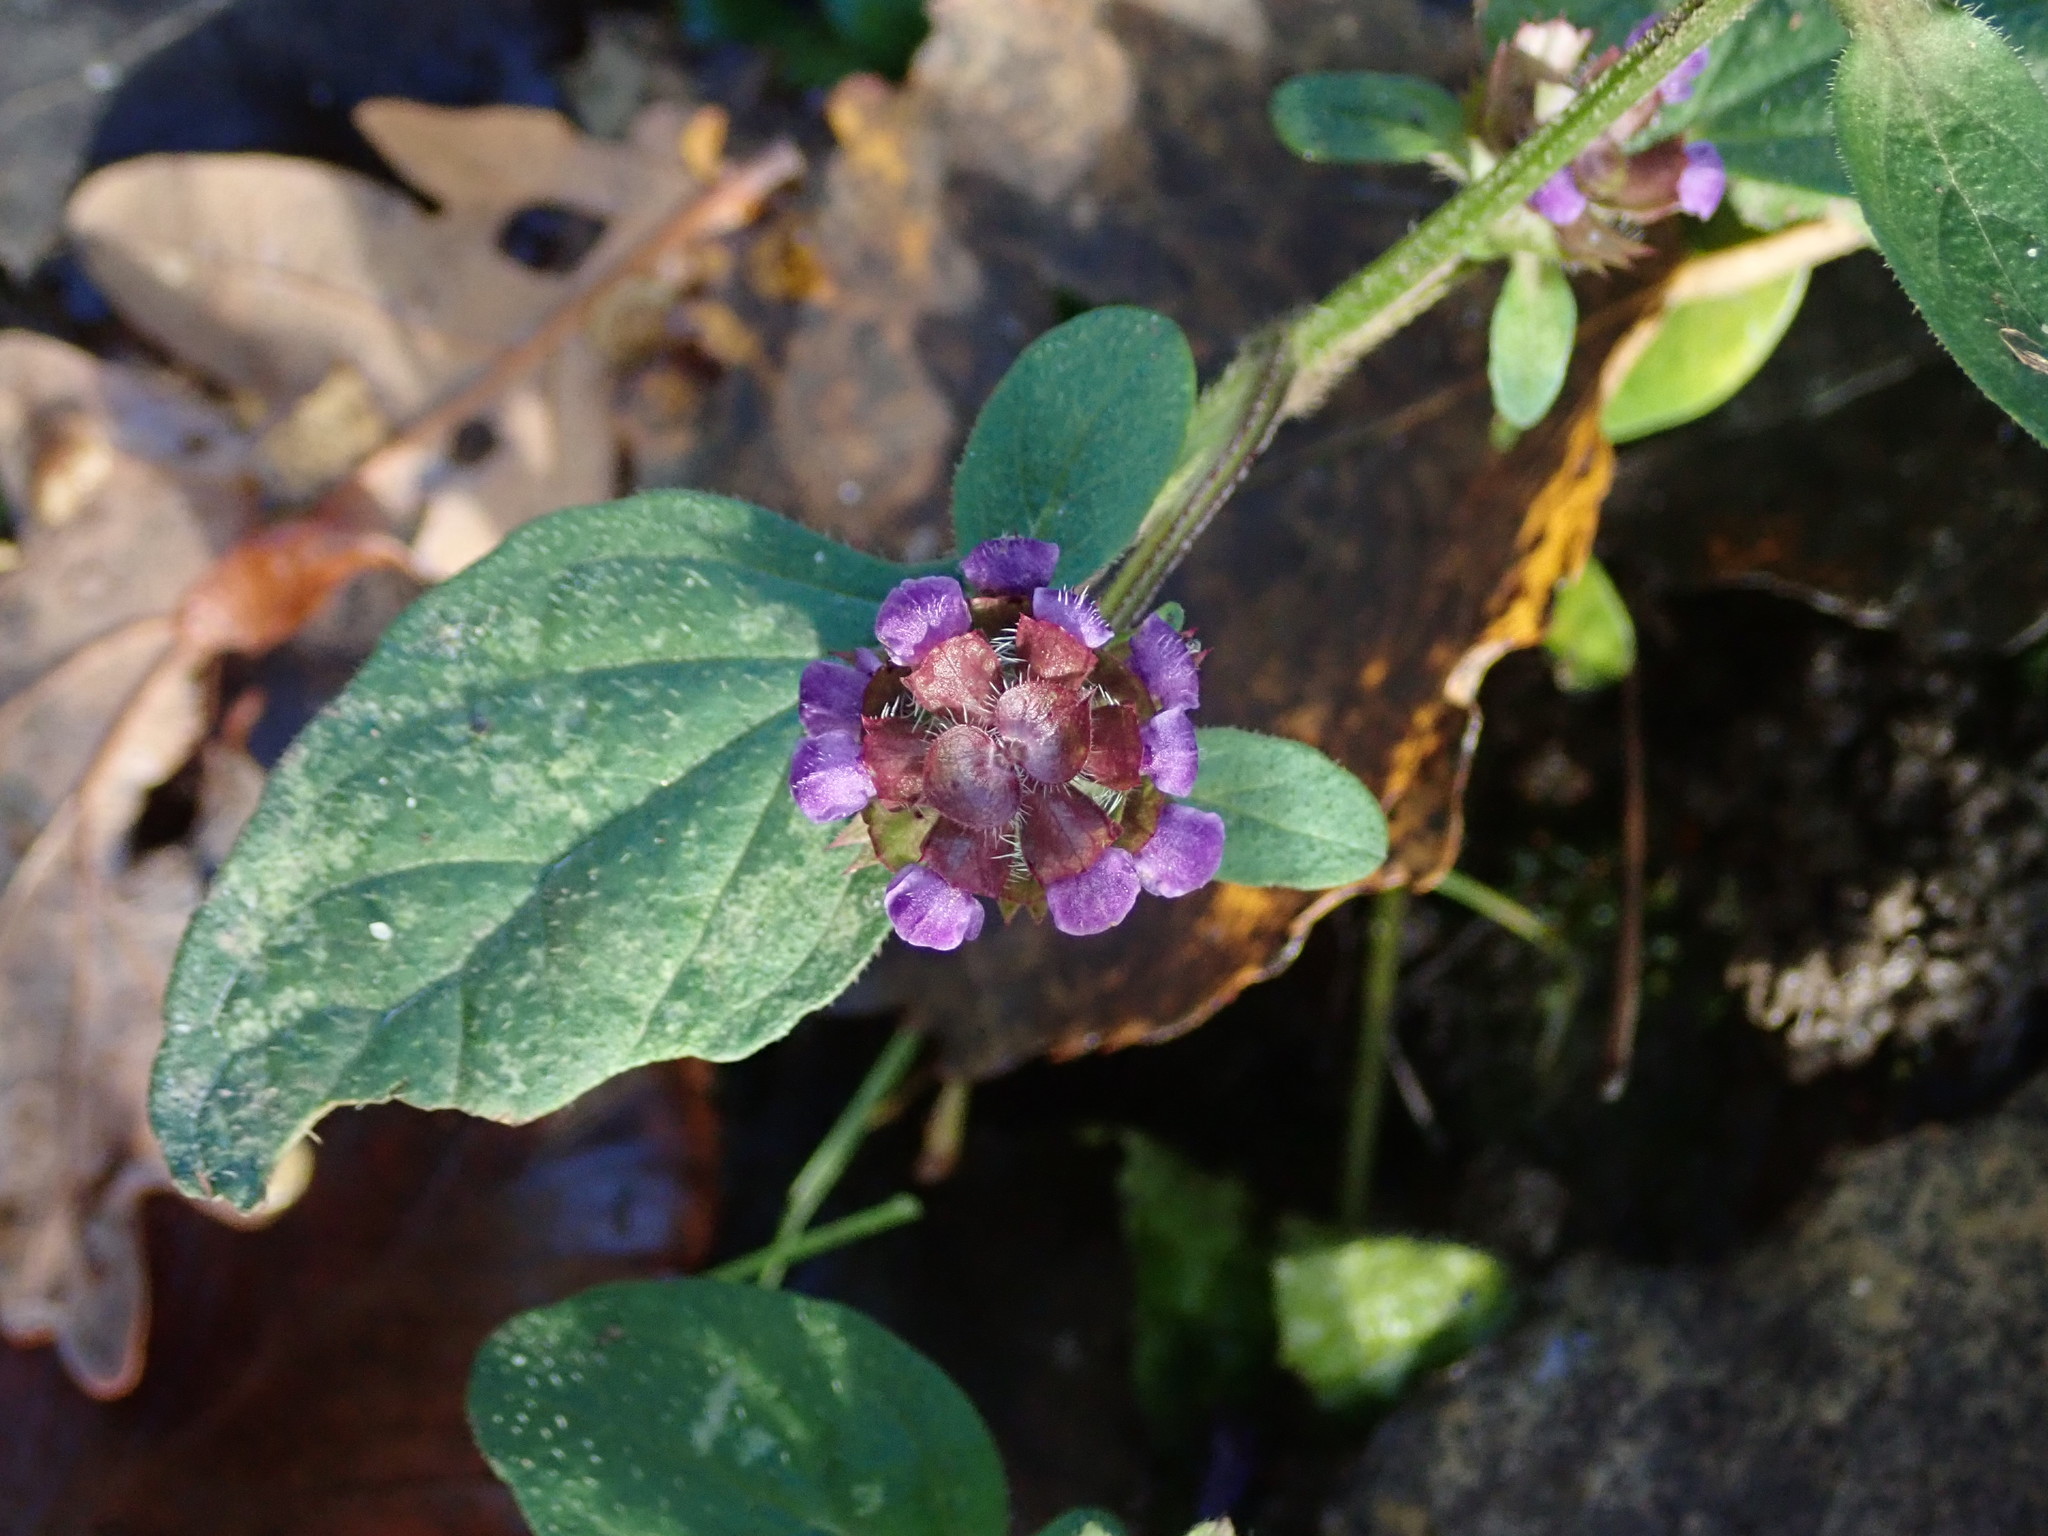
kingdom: Plantae
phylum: Tracheophyta
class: Magnoliopsida
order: Lamiales
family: Lamiaceae
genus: Prunella
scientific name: Prunella vulgaris
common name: Heal-all
